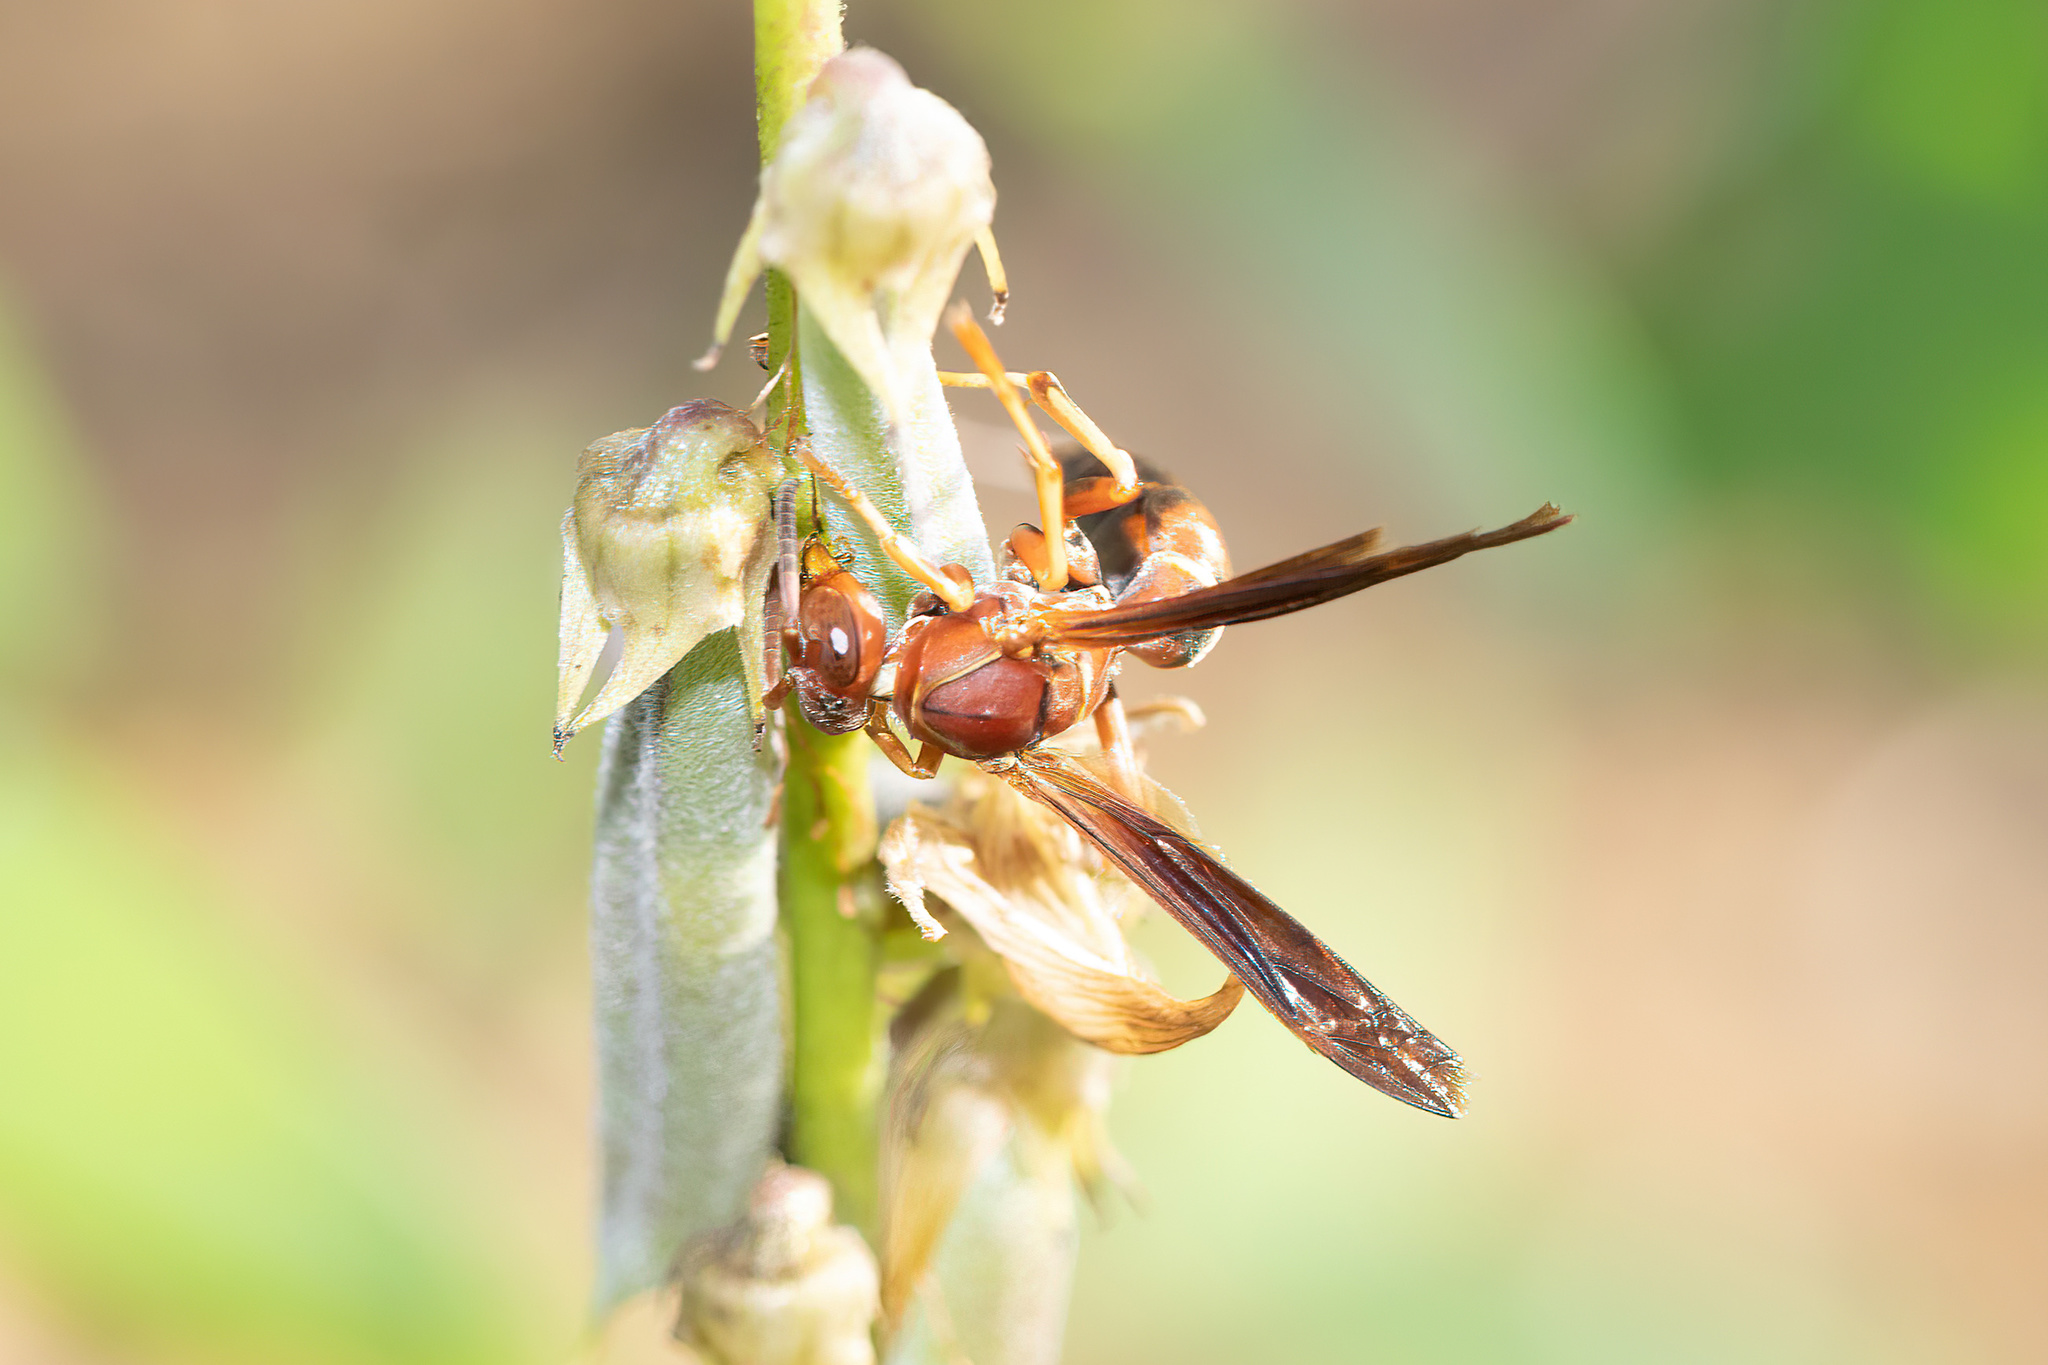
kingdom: Animalia
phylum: Arthropoda
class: Insecta
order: Hymenoptera
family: Eumenidae
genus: Polistes
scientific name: Polistes fuscatus
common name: Dark paper wasp
